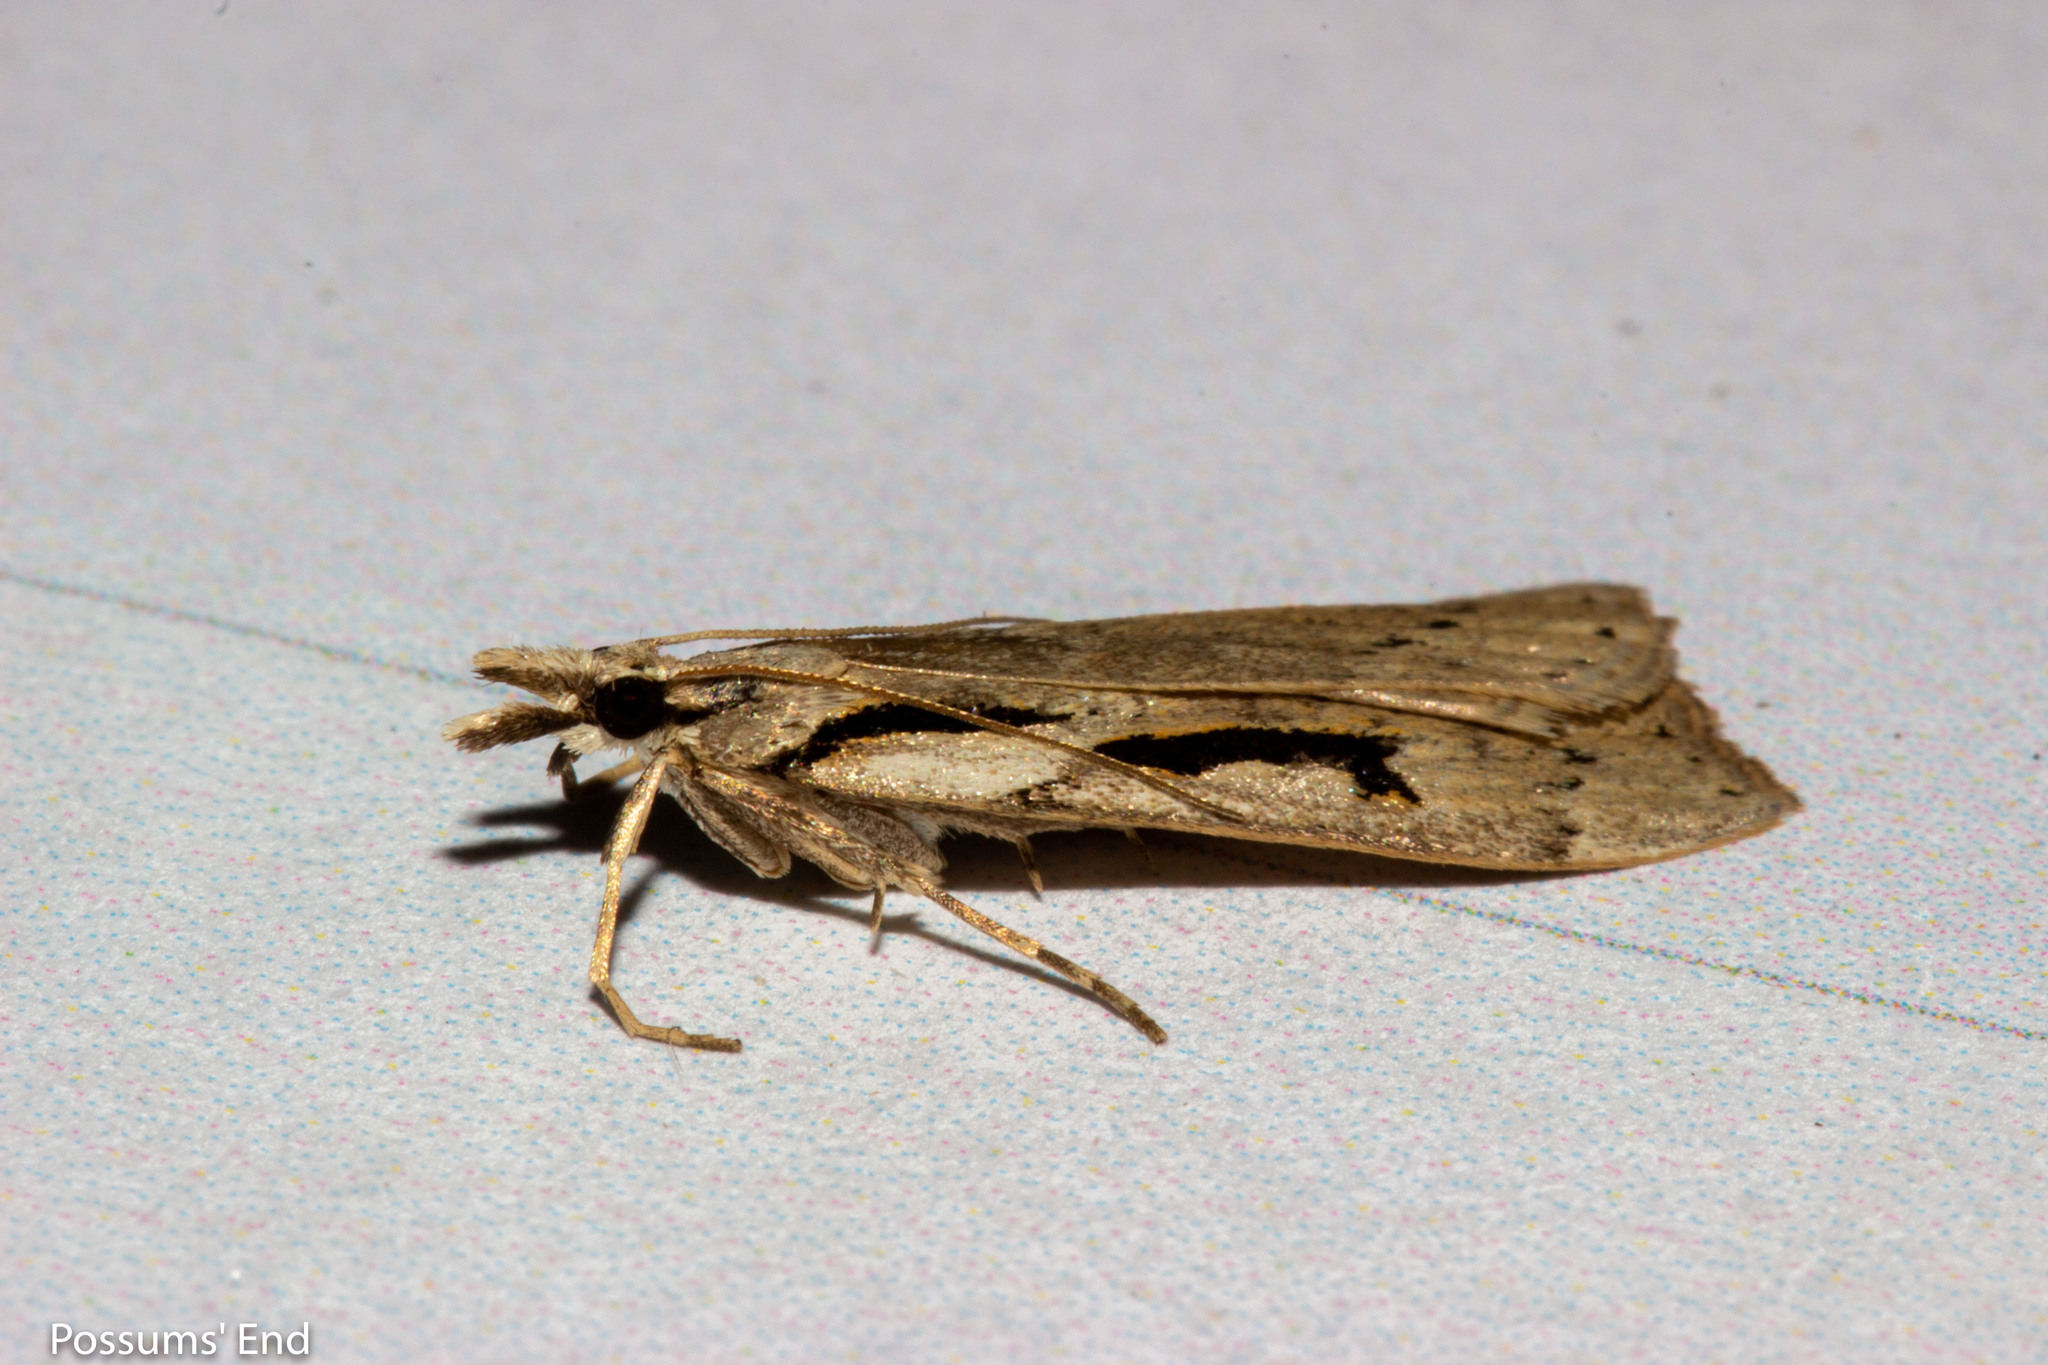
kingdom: Animalia
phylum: Arthropoda
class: Insecta
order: Lepidoptera
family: Crambidae
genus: Scoparia
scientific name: Scoparia rotuellus
